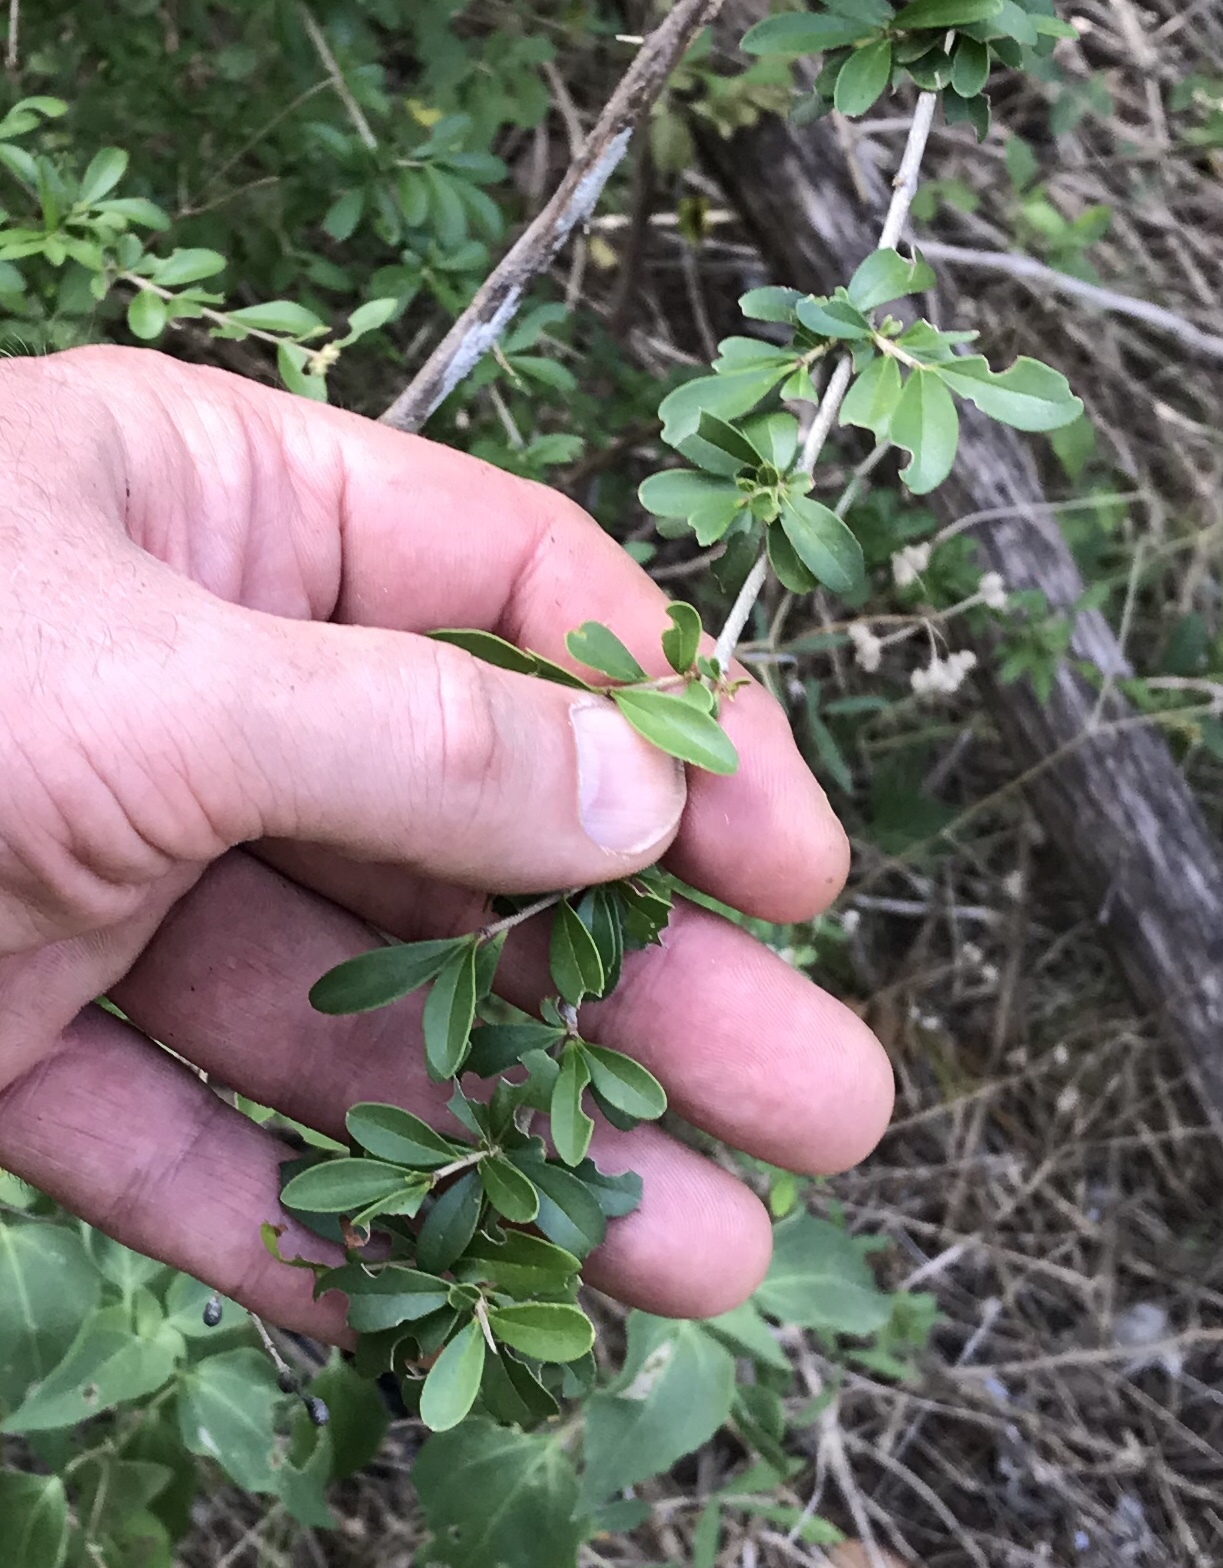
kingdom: Plantae
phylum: Tracheophyta
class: Magnoliopsida
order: Lamiales
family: Oleaceae
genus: Ligustrum
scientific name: Ligustrum quihoui
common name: Waxyleaf privet
